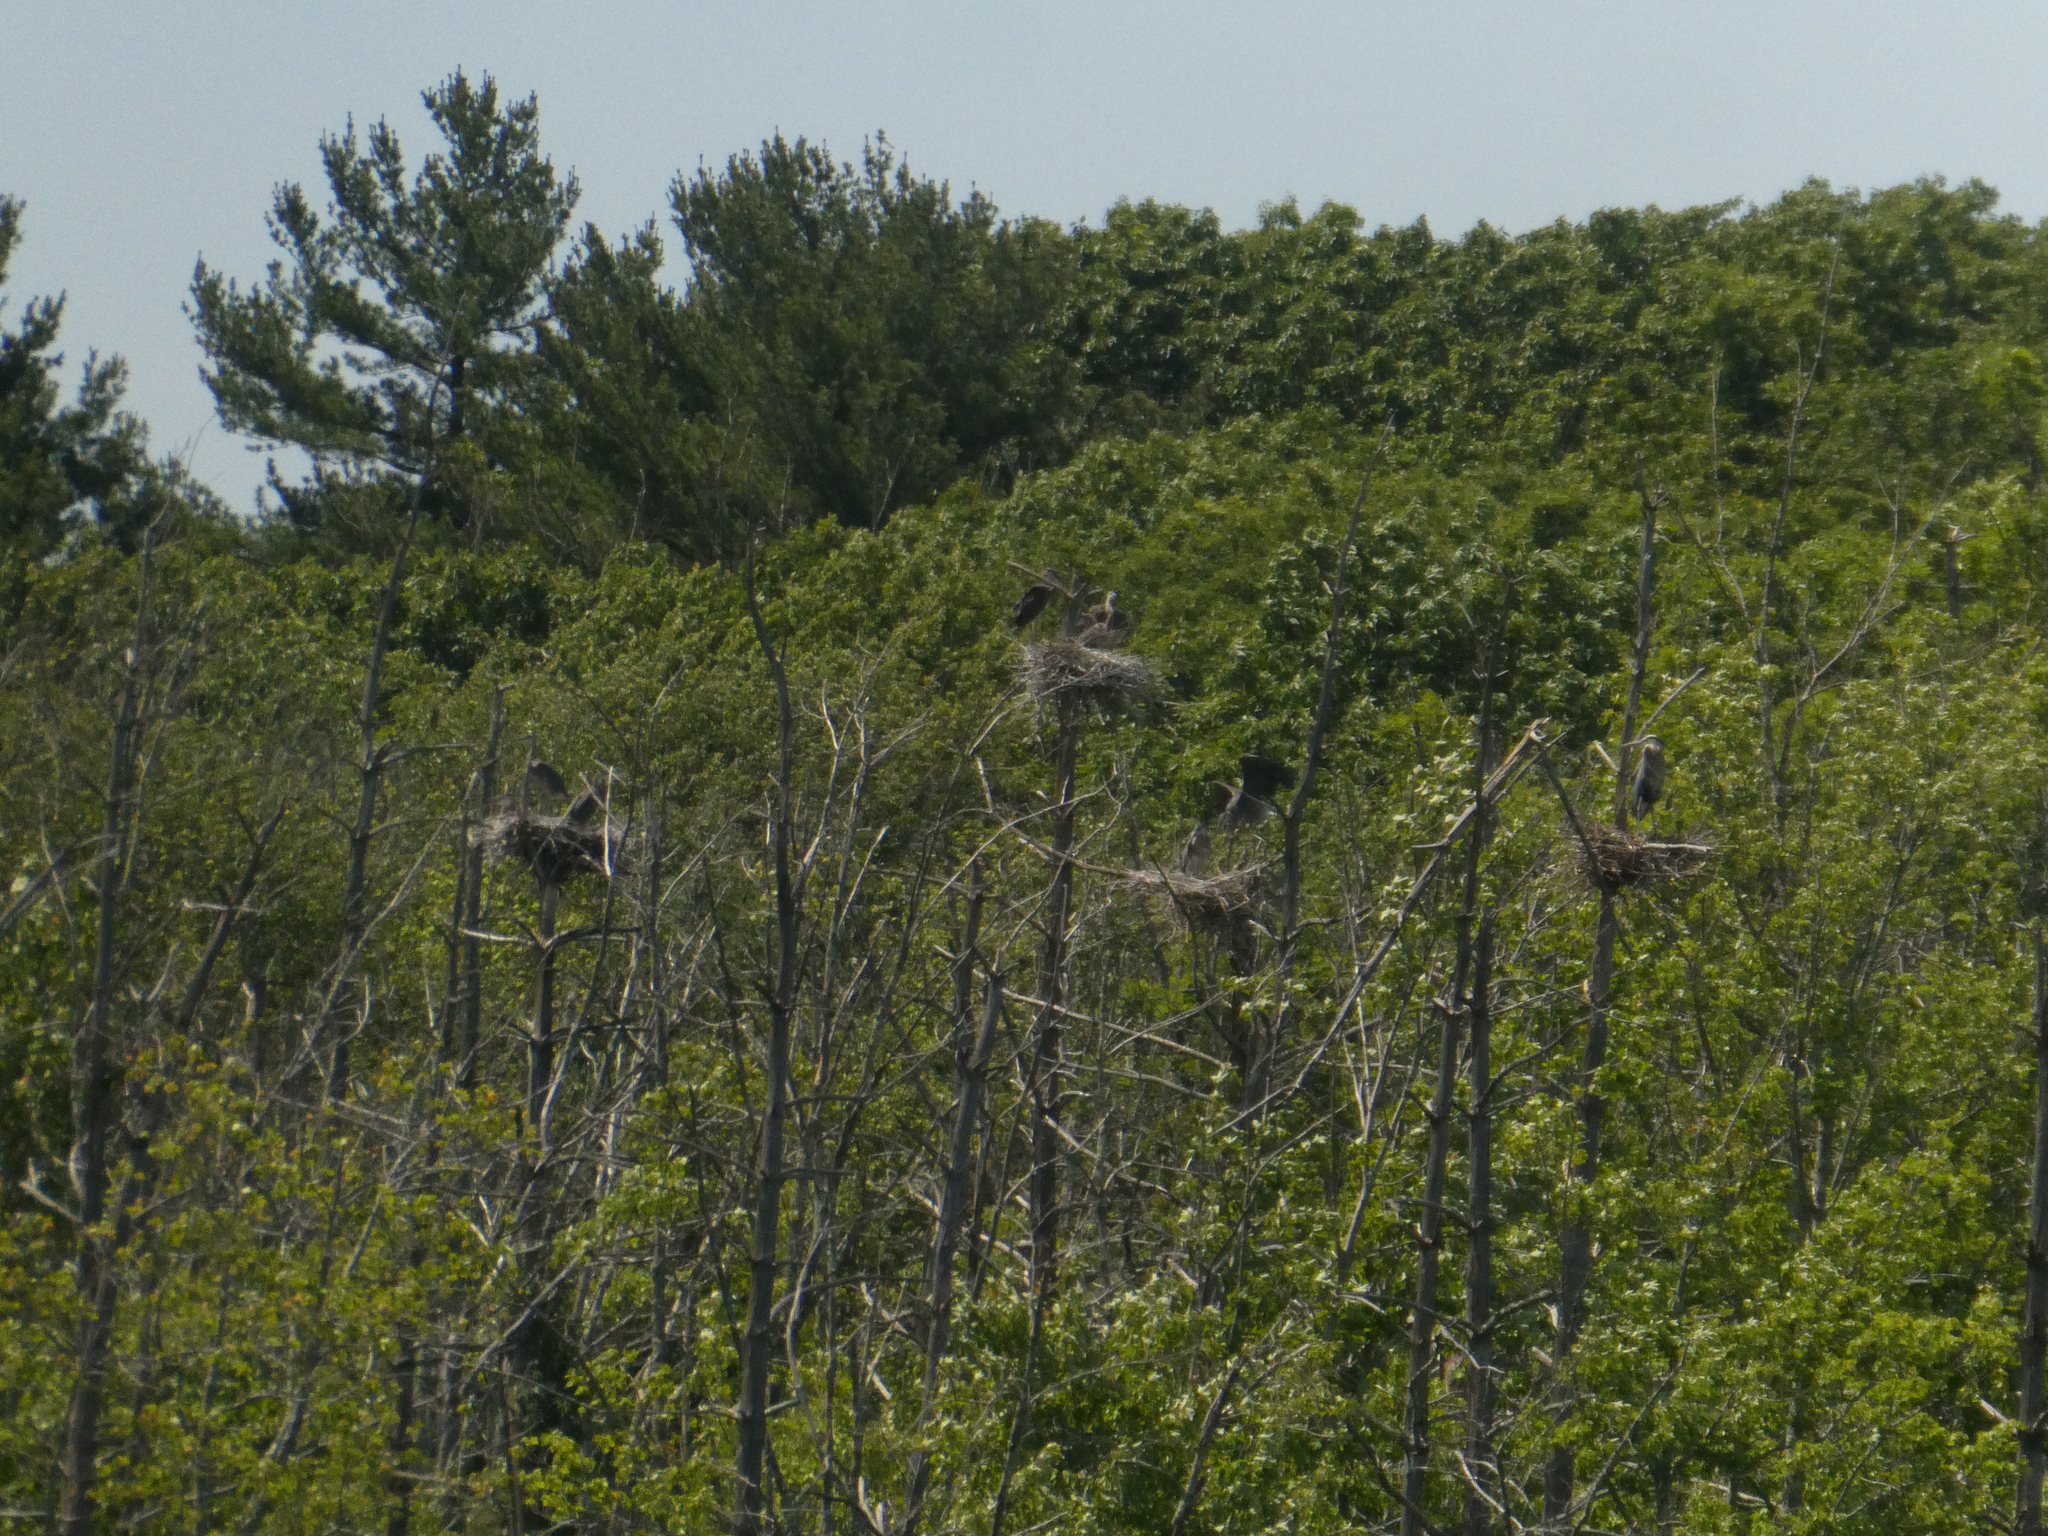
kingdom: Animalia
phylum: Chordata
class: Aves
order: Pelecaniformes
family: Ardeidae
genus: Ardea
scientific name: Ardea herodias
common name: Great blue heron
